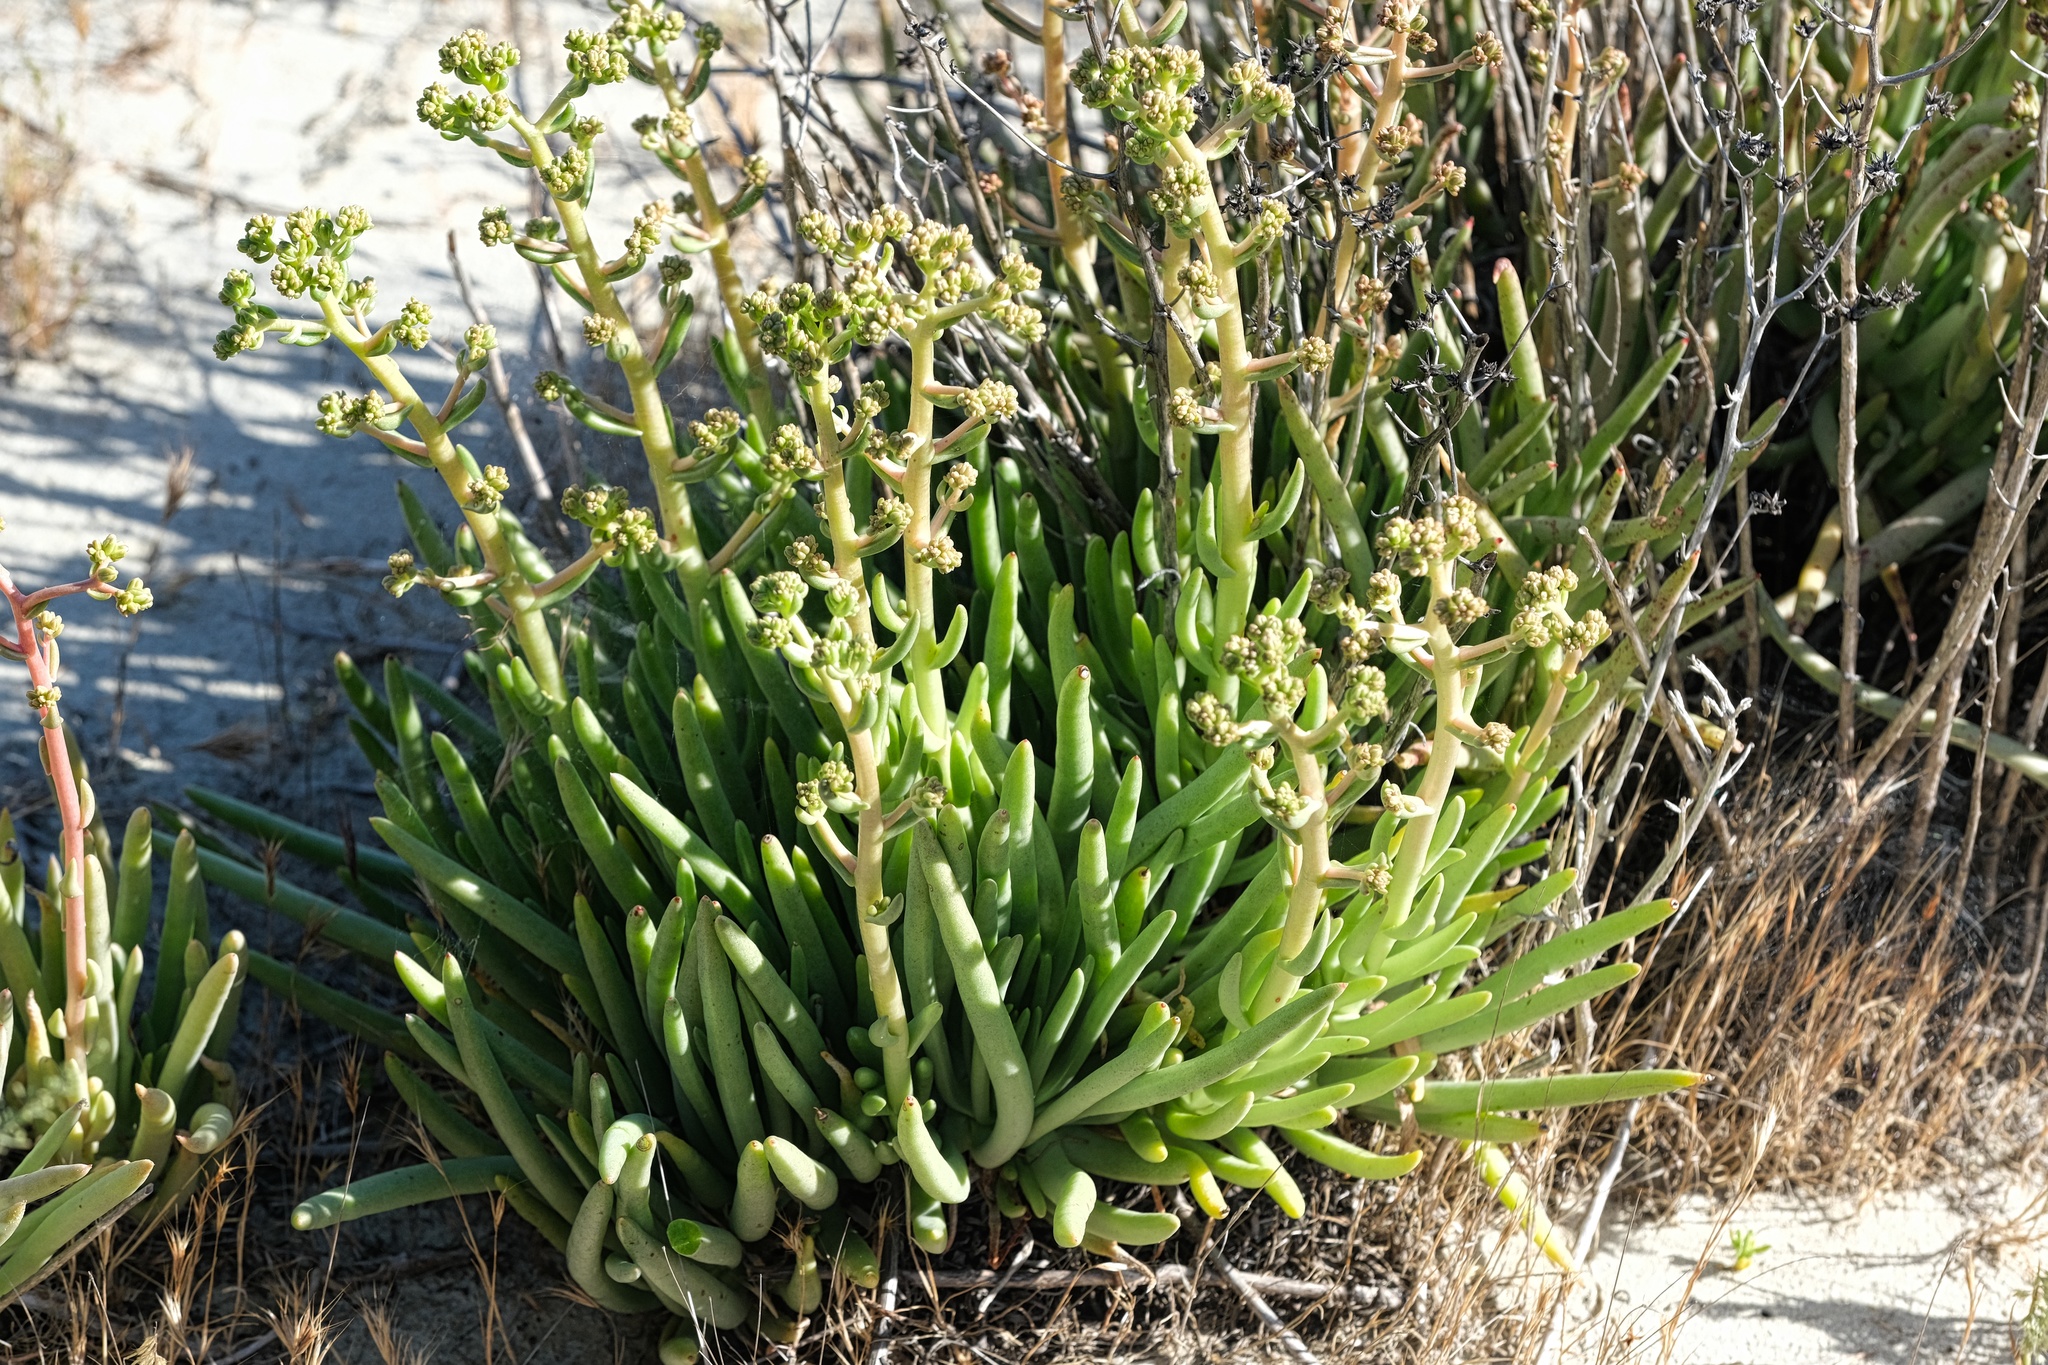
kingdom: Plantae
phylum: Tracheophyta
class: Magnoliopsida
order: Saxifragales
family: Crassulaceae
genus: Dudleya
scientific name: Dudleya edulis
